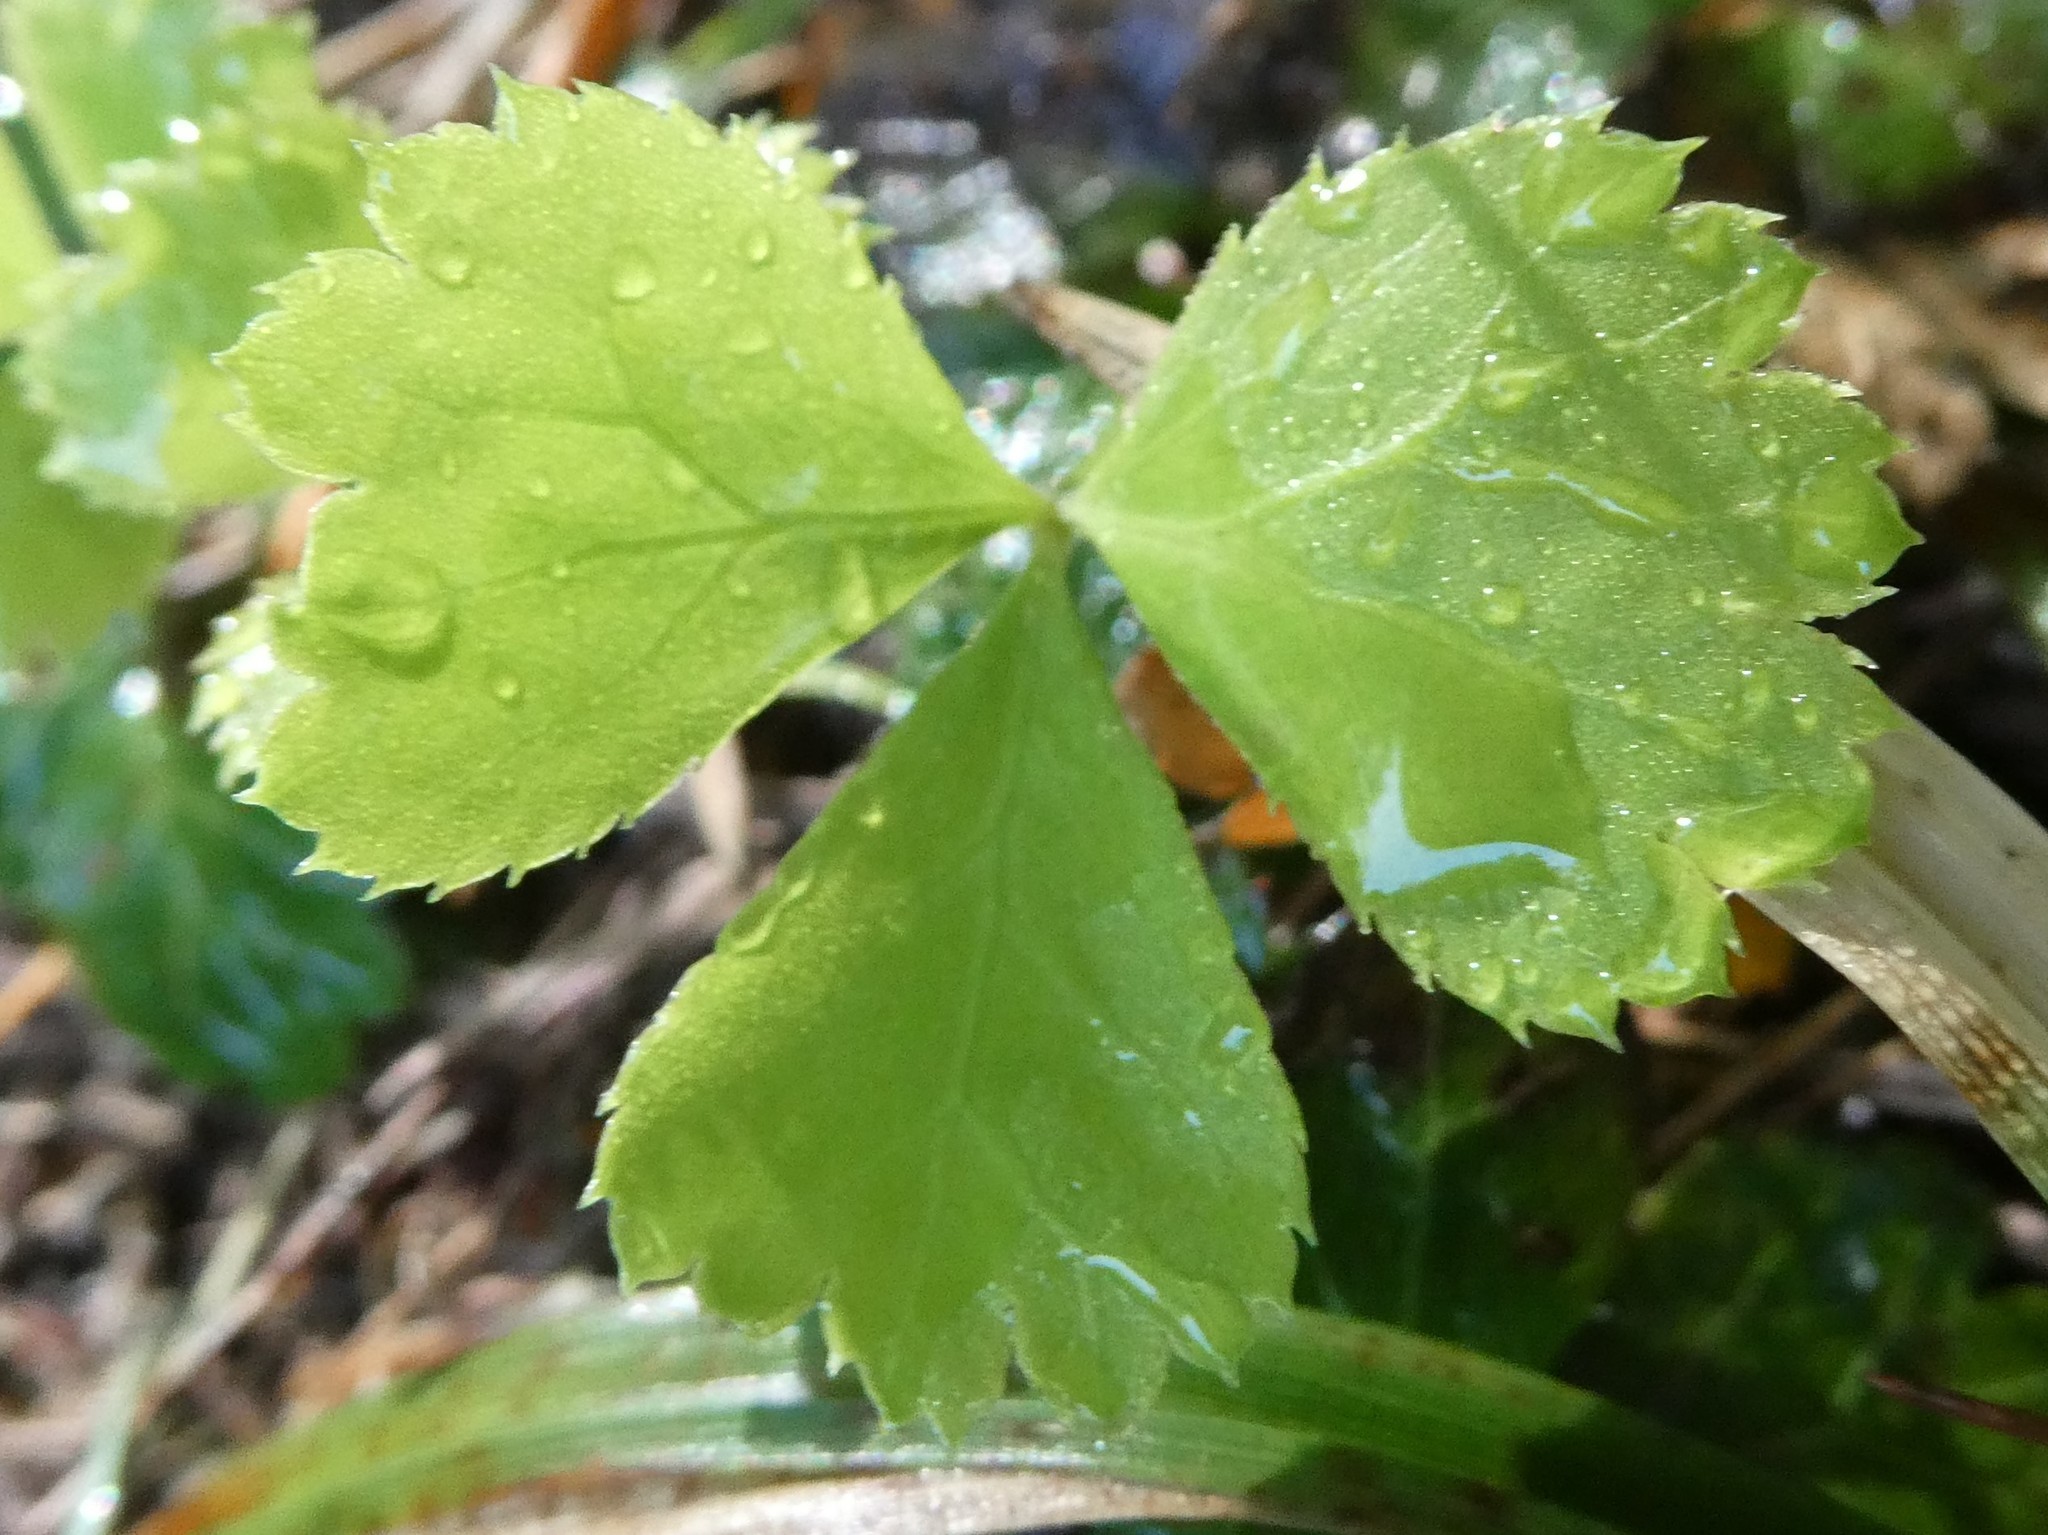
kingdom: Plantae
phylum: Tracheophyta
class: Magnoliopsida
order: Ranunculales
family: Ranunculaceae
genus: Coptis
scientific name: Coptis trifolia
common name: Canker-root
